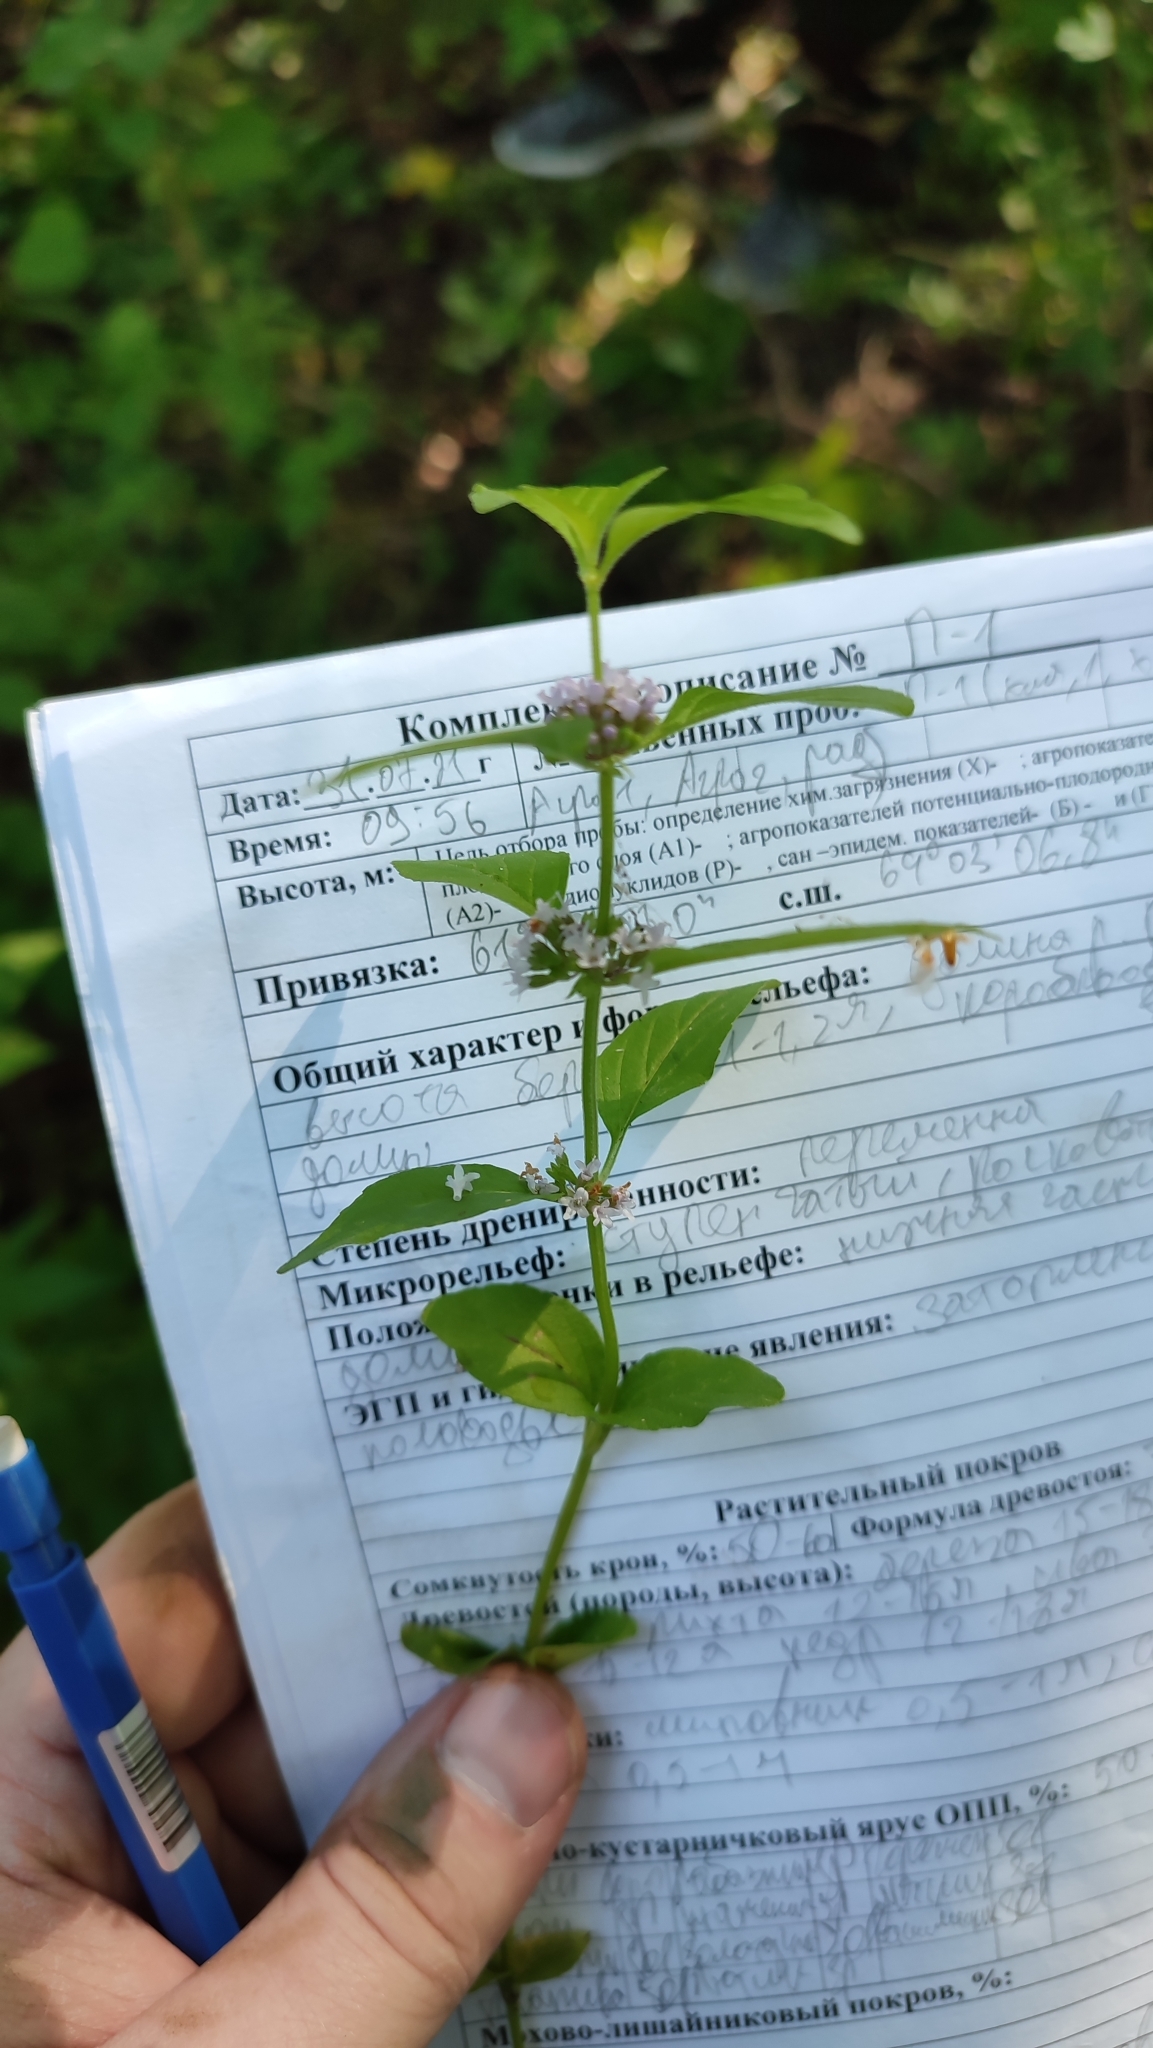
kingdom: Plantae
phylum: Tracheophyta
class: Magnoliopsida
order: Lamiales
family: Lamiaceae
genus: Mentha
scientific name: Mentha arvensis
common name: Corn mint
